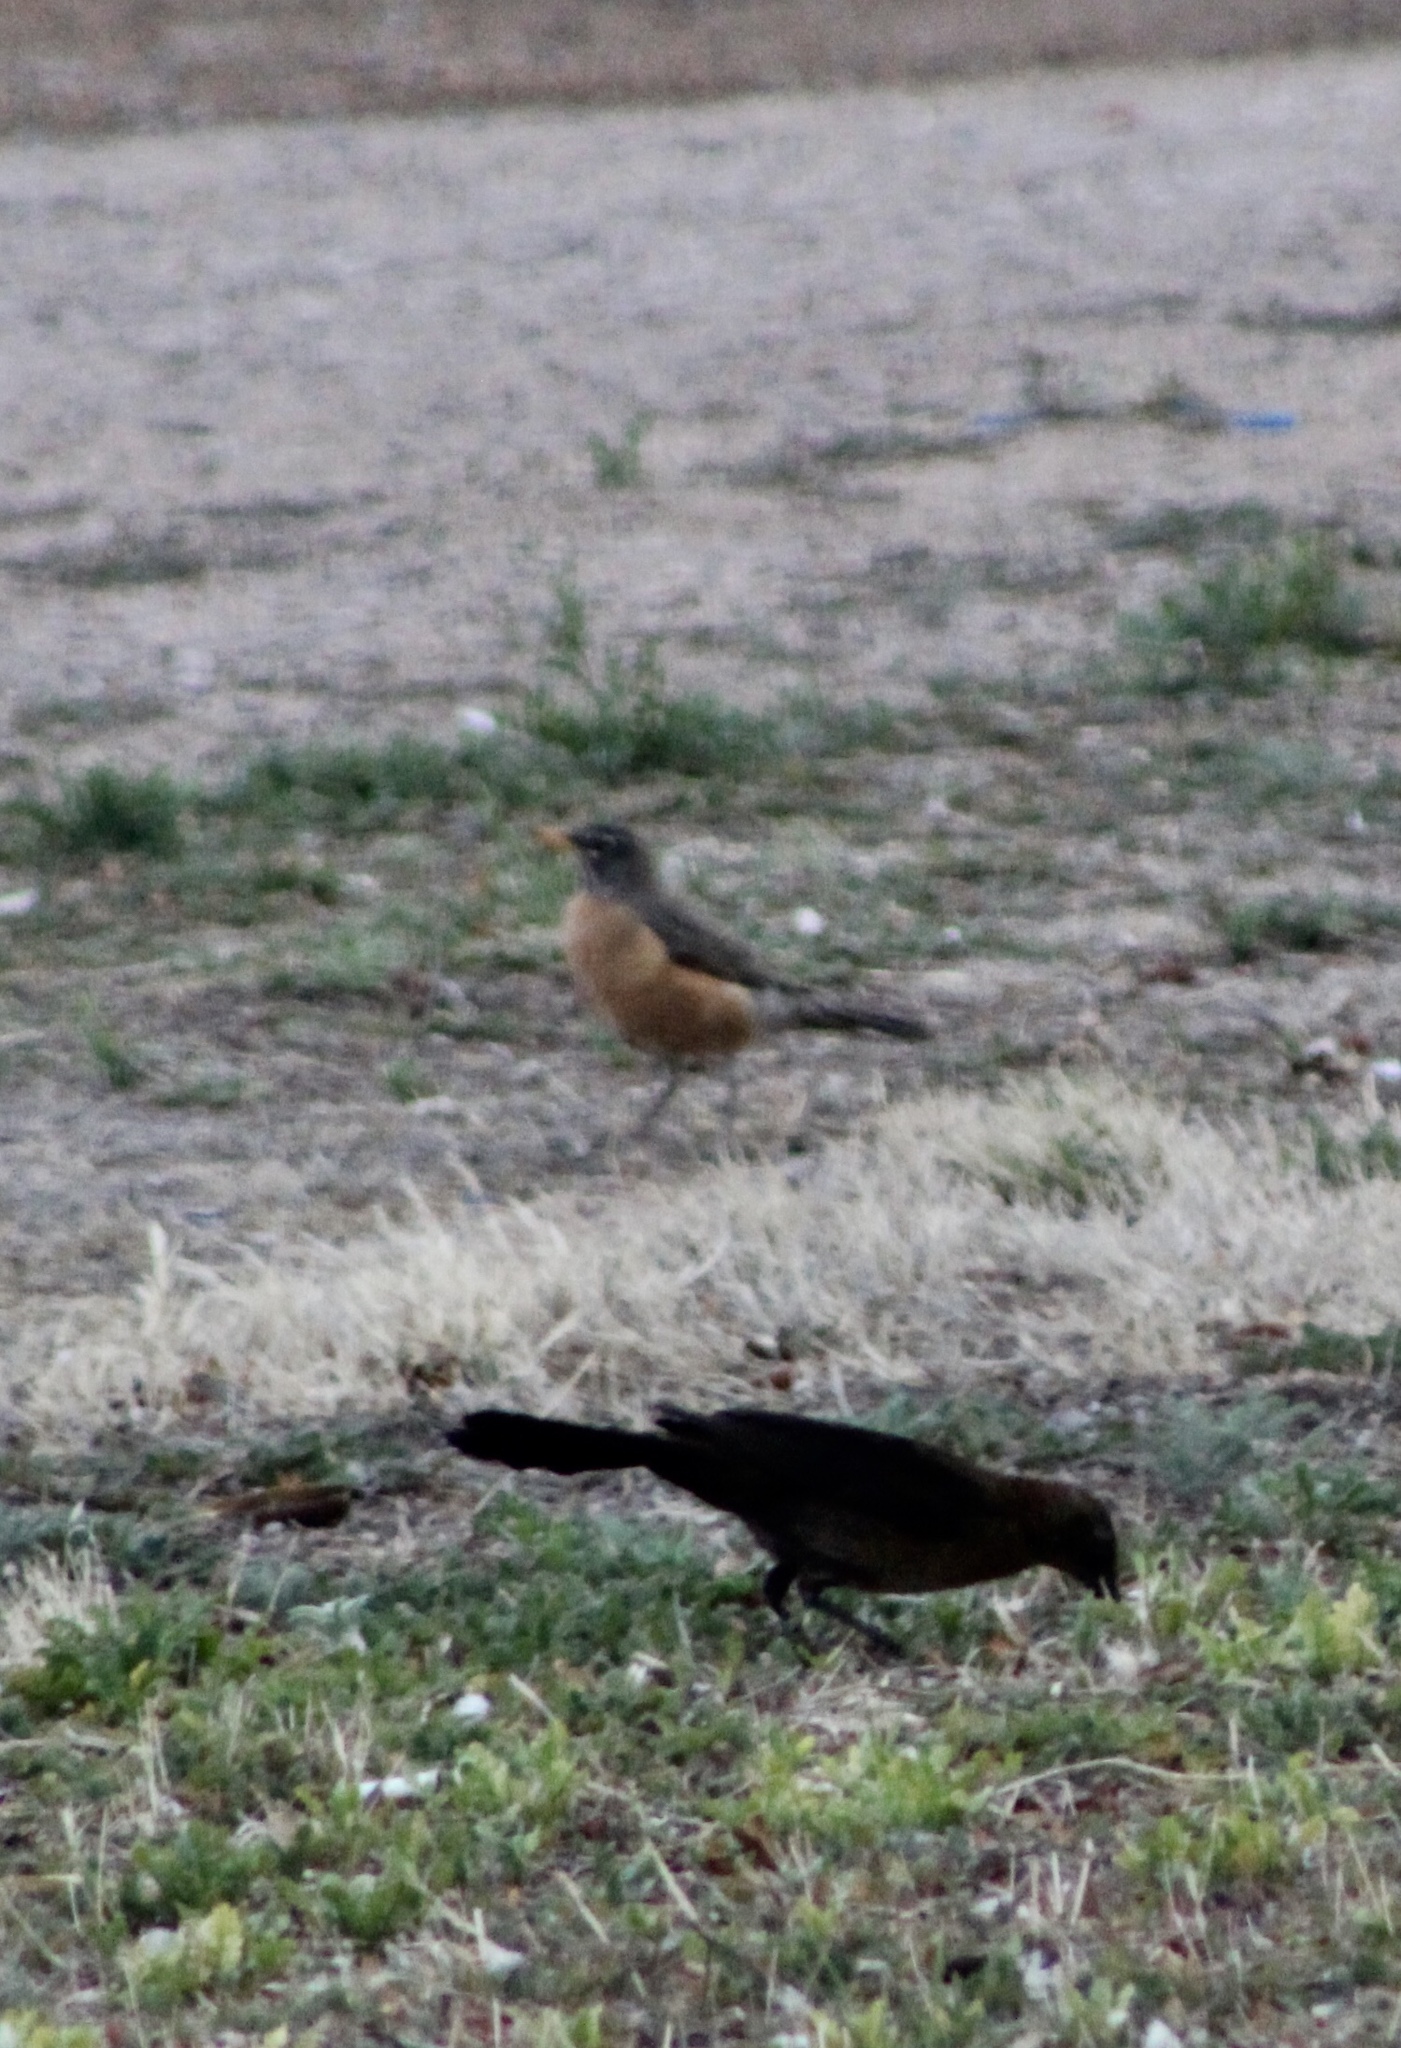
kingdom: Animalia
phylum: Chordata
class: Aves
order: Passeriformes
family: Icteridae
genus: Quiscalus
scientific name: Quiscalus mexicanus
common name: Great-tailed grackle
